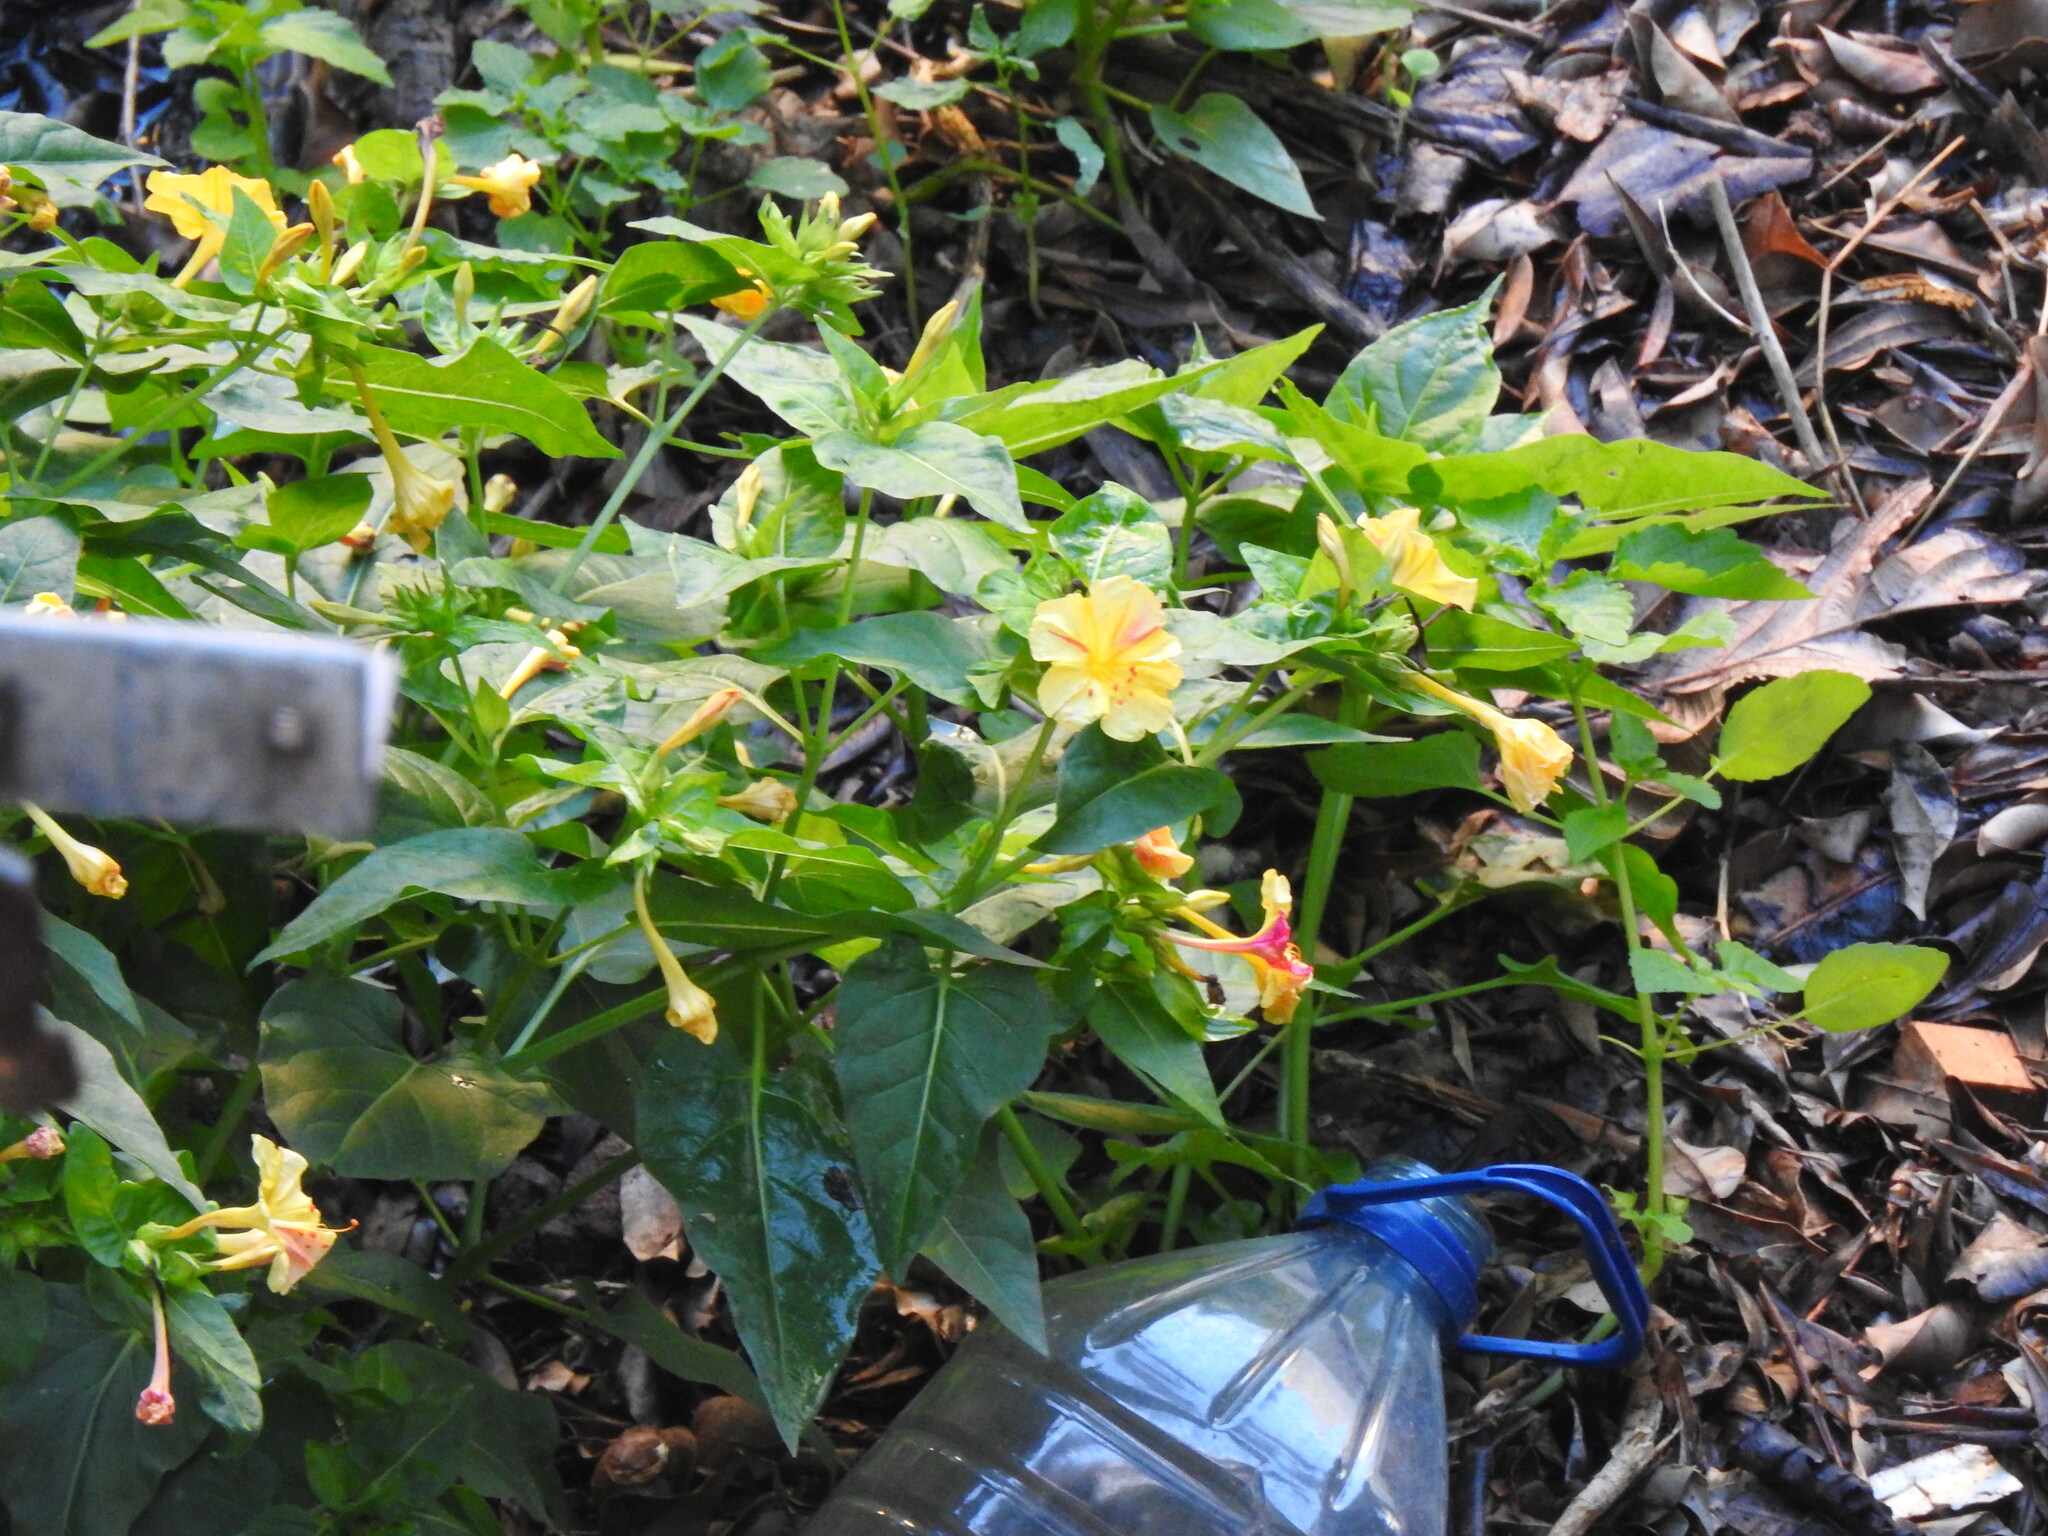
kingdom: Plantae
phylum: Tracheophyta
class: Magnoliopsida
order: Caryophyllales
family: Nyctaginaceae
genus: Mirabilis
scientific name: Mirabilis jalapa
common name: Marvel-of-peru
